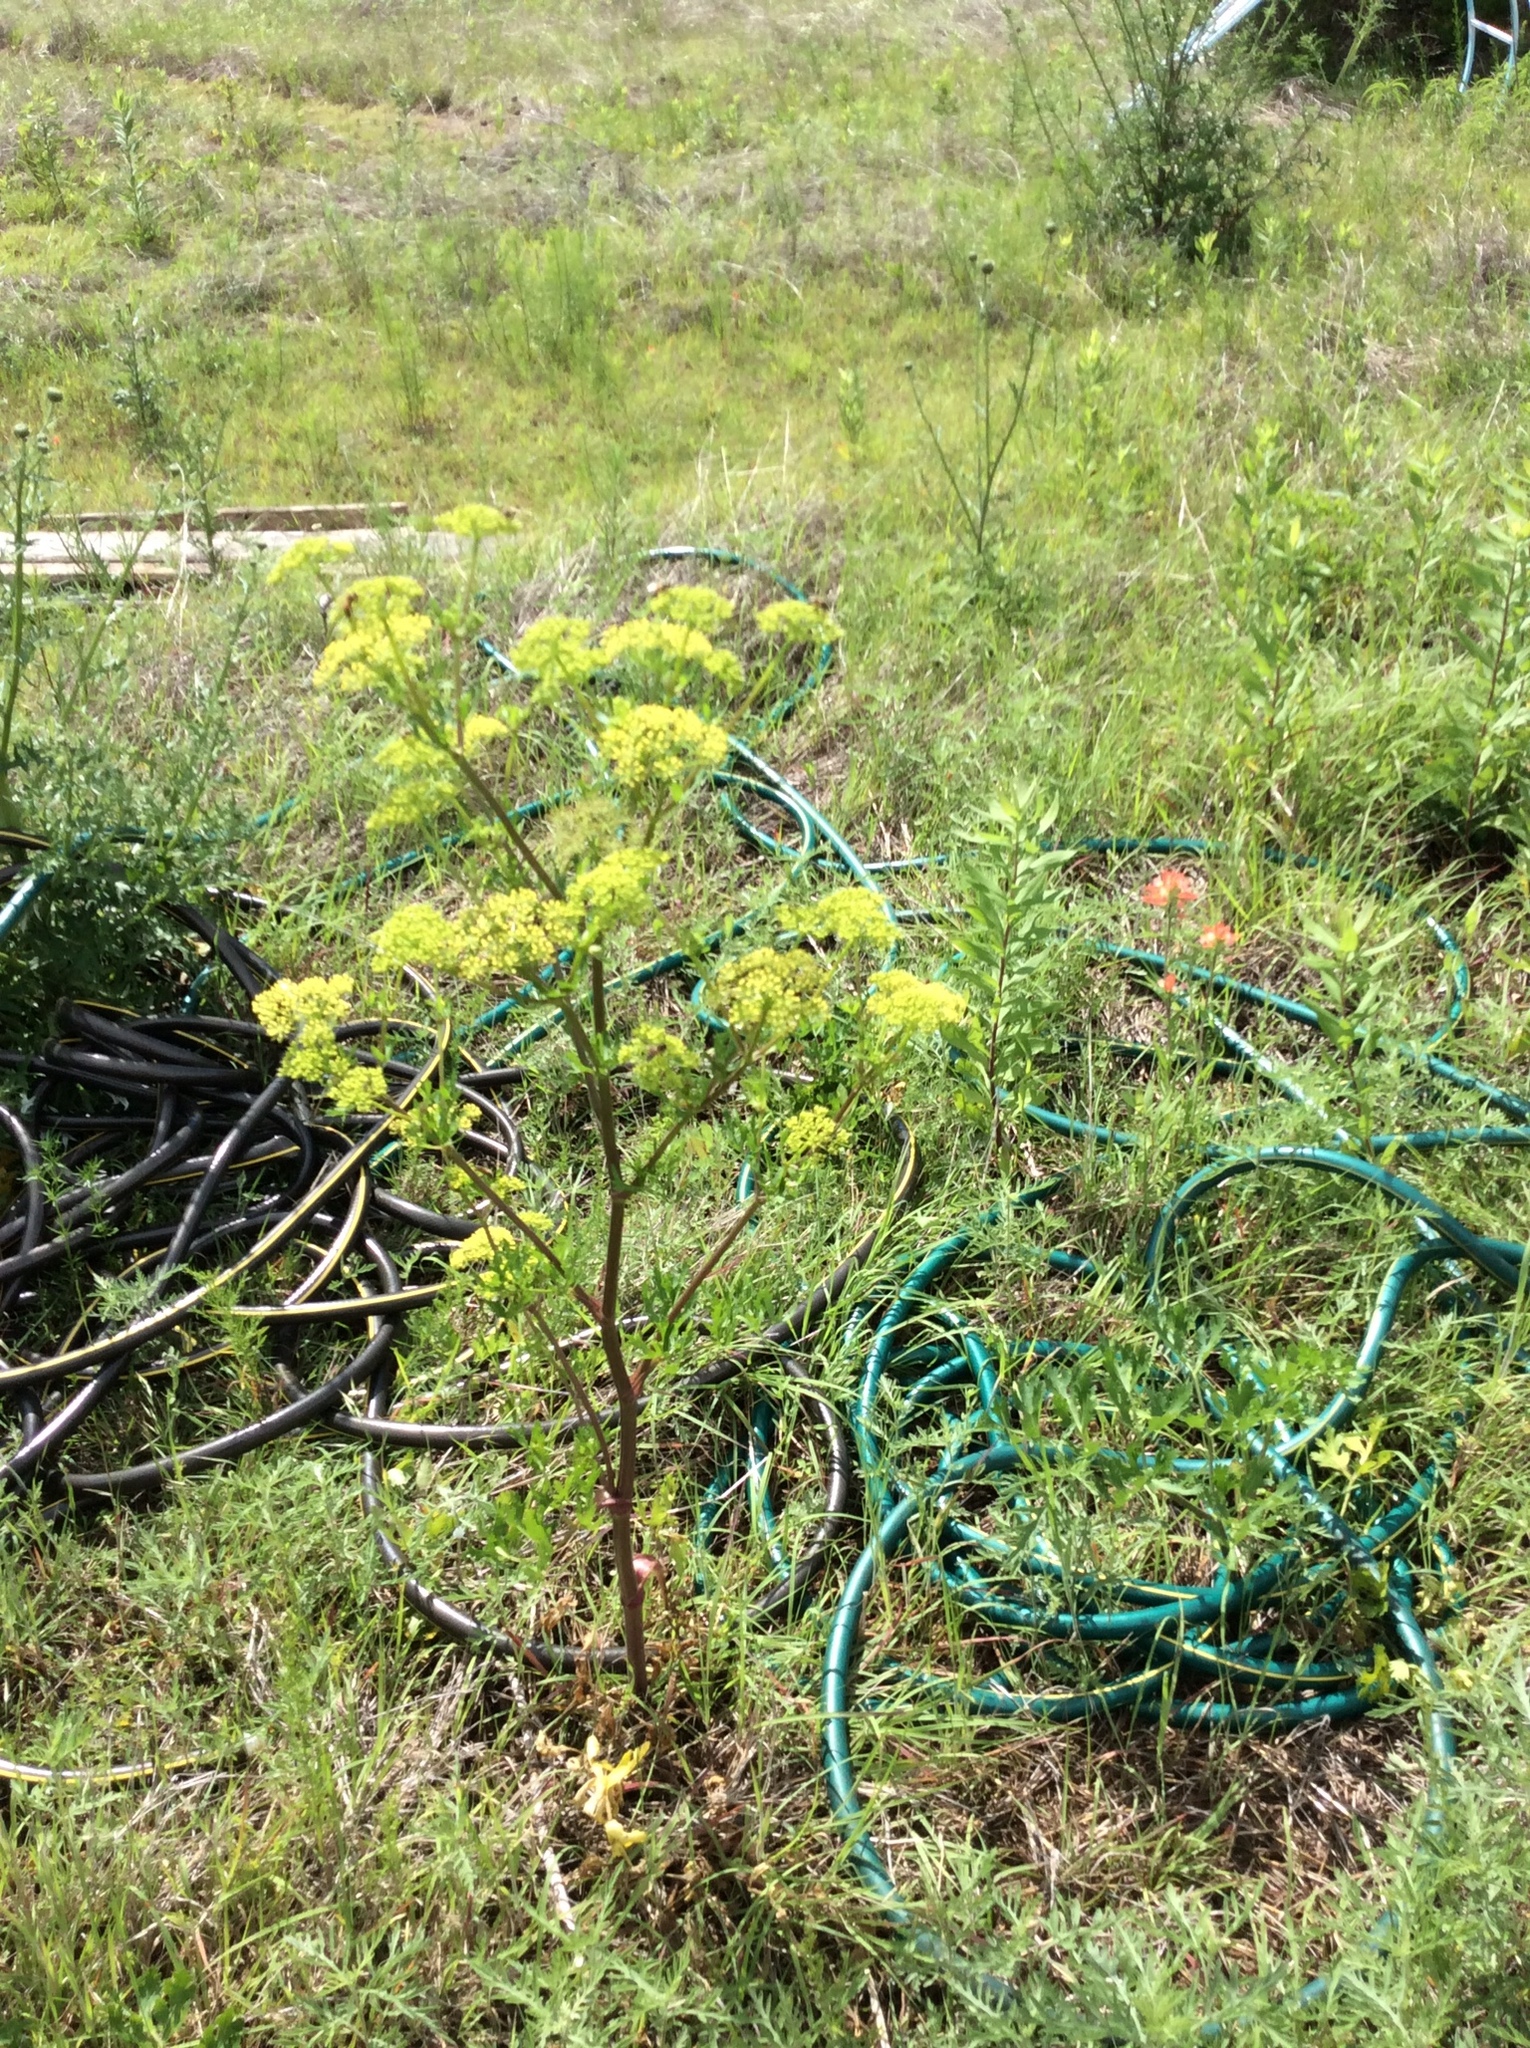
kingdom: Plantae
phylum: Tracheophyta
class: Magnoliopsida
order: Apiales
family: Apiaceae
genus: Polytaenia
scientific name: Polytaenia texana
